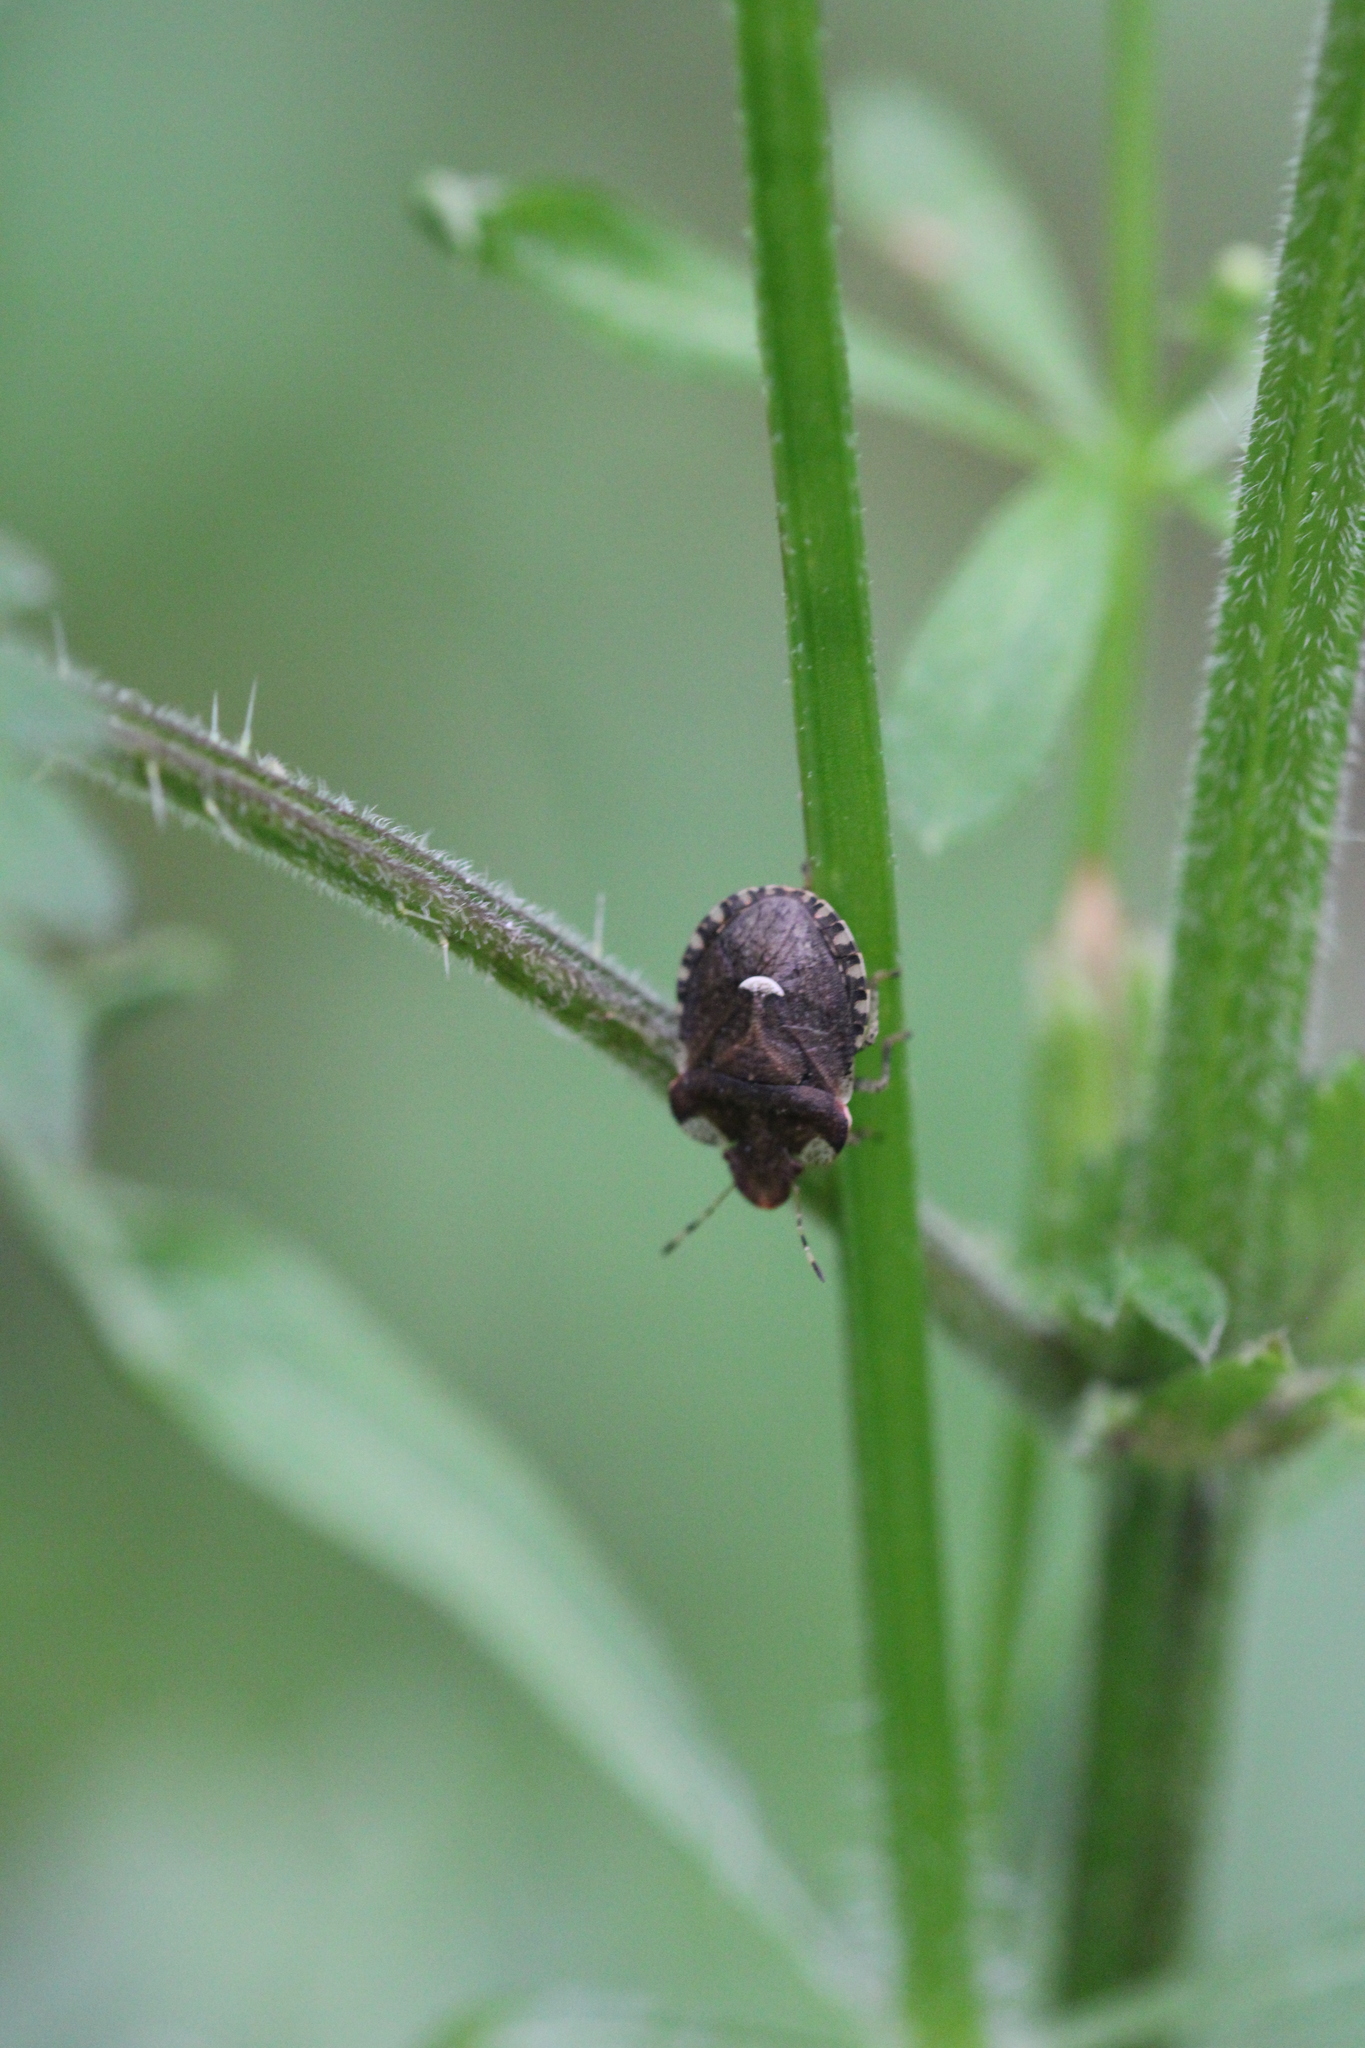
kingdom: Animalia
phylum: Arthropoda
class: Insecta
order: Hemiptera
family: Pentatomidae
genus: Dyroderes
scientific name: Dyroderes umbraculatus
